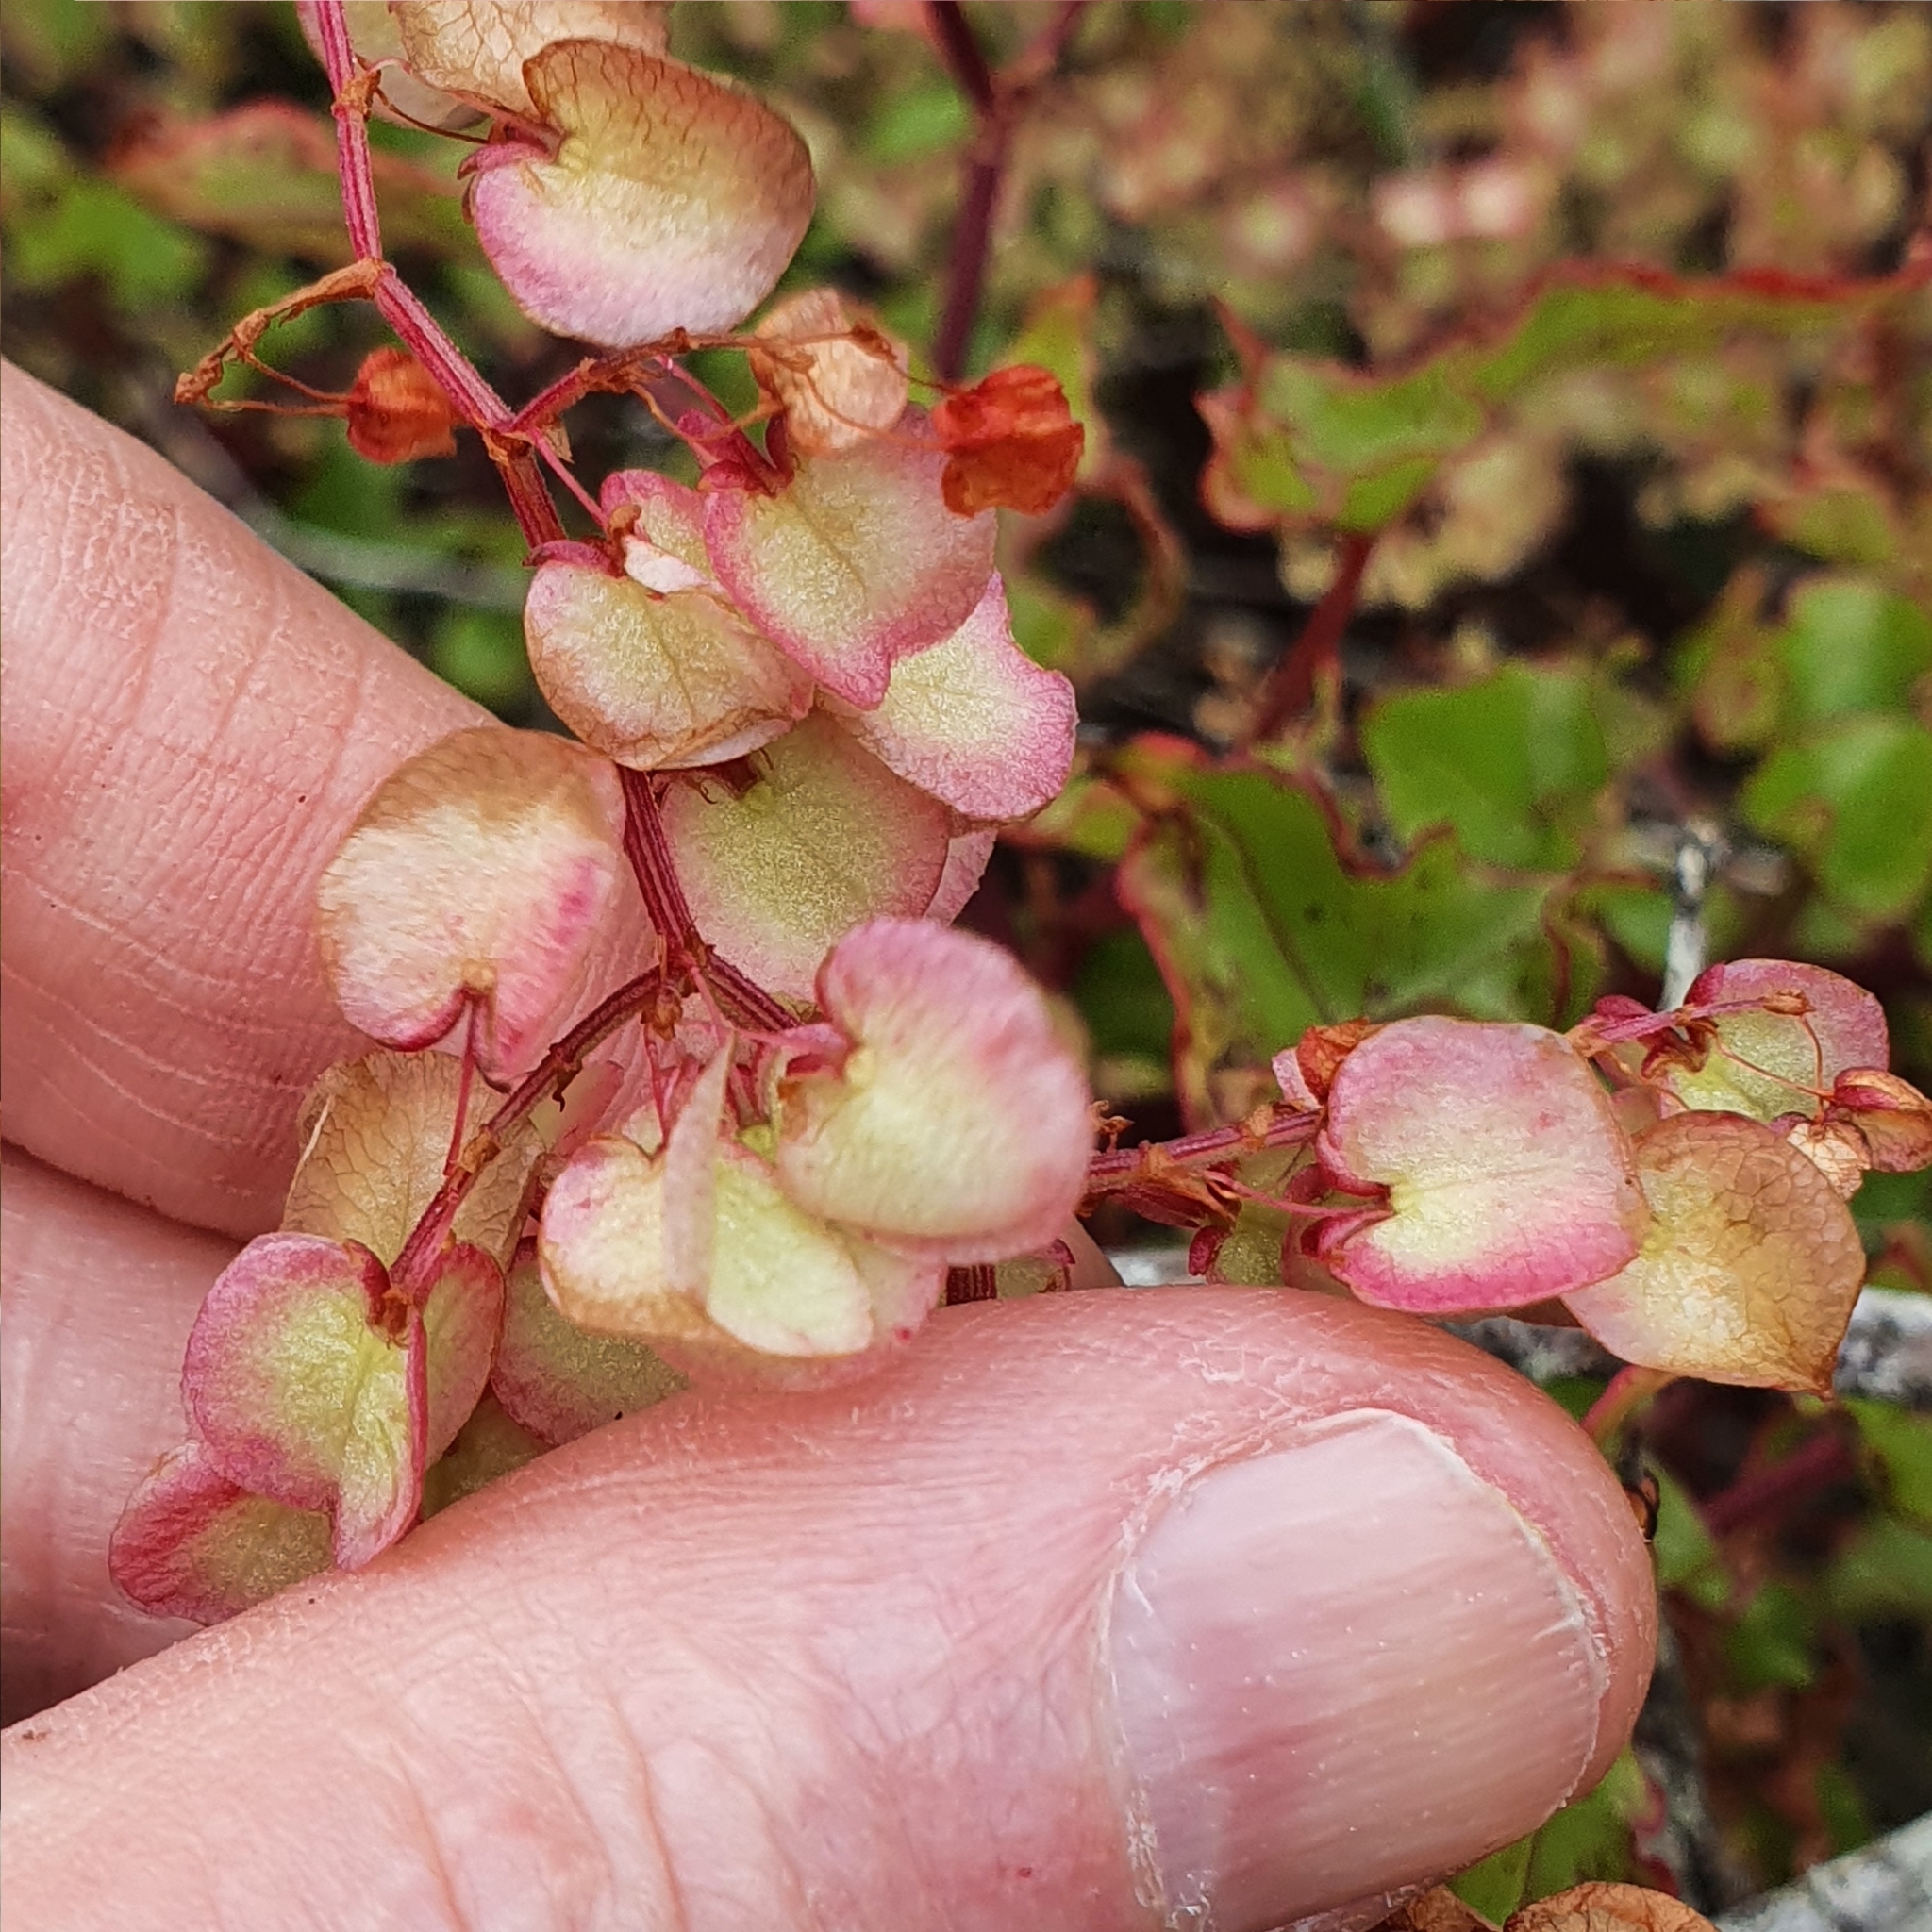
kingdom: Plantae
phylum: Tracheophyta
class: Magnoliopsida
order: Caryophyllales
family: Polygonaceae
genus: Rumex
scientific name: Rumex sagittatus
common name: Climbing dock
